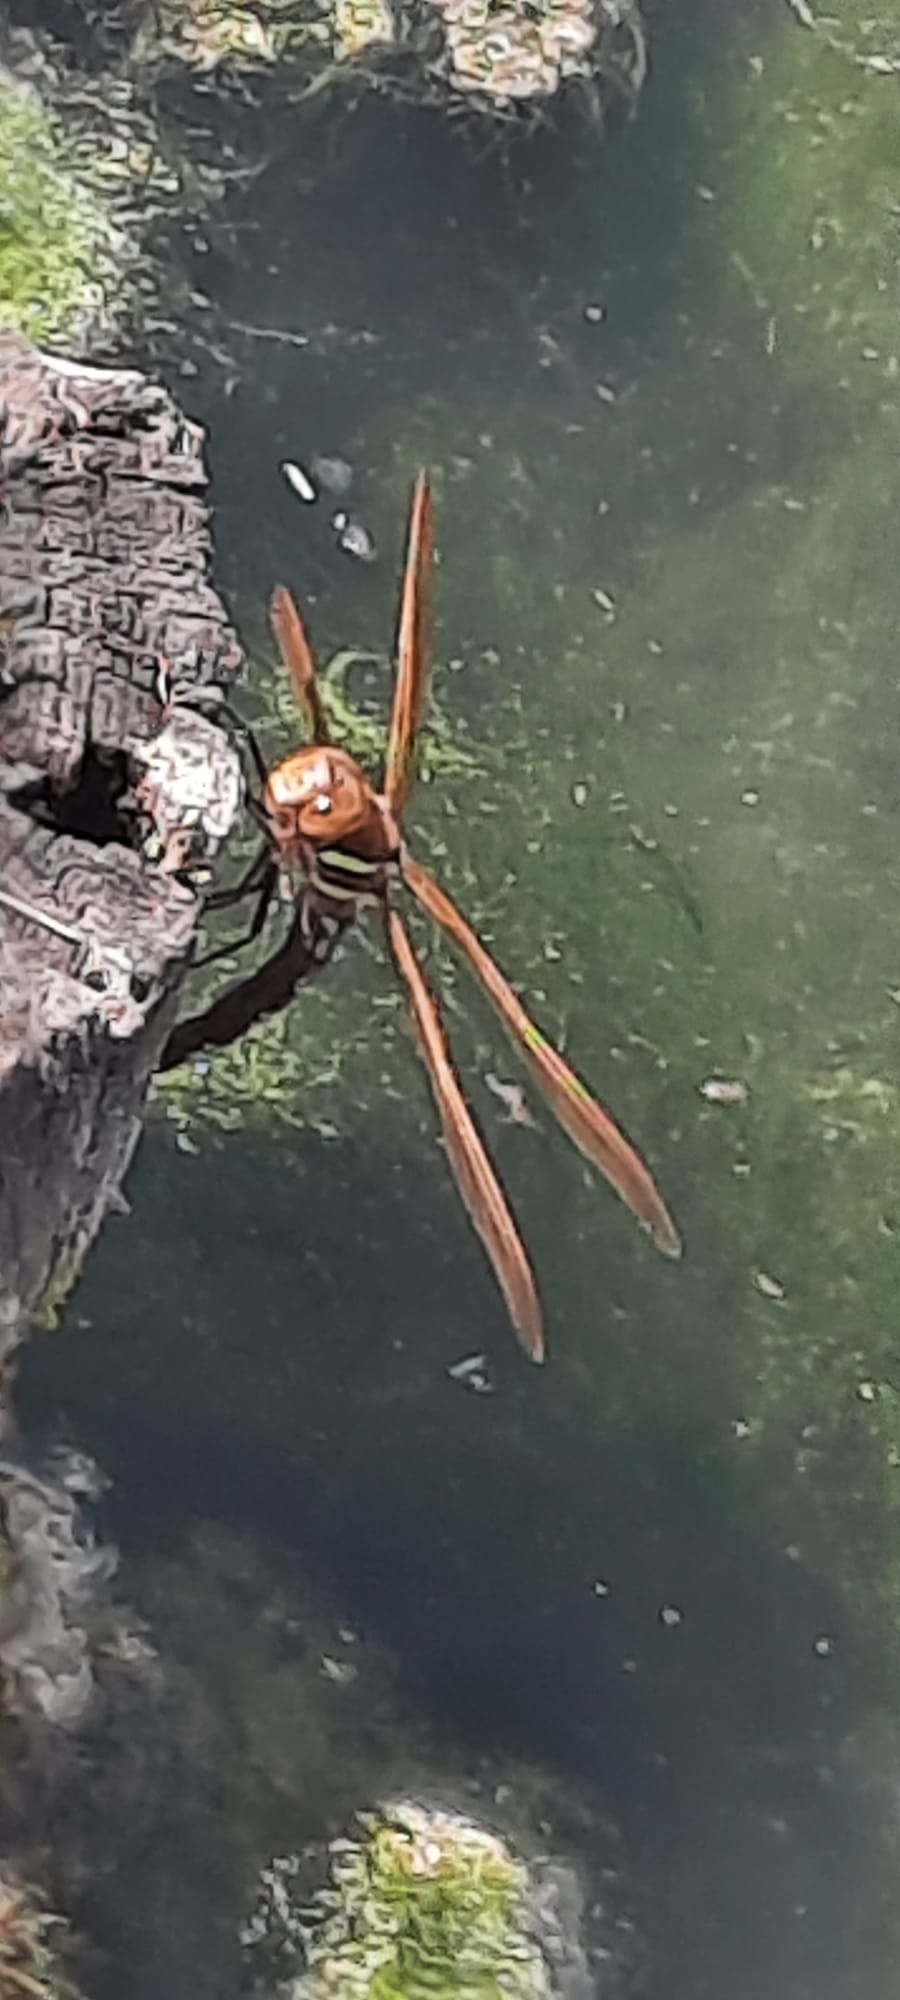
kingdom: Animalia
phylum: Arthropoda
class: Insecta
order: Odonata
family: Aeshnidae
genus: Aeshna
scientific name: Aeshna grandis
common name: Brown hawker
